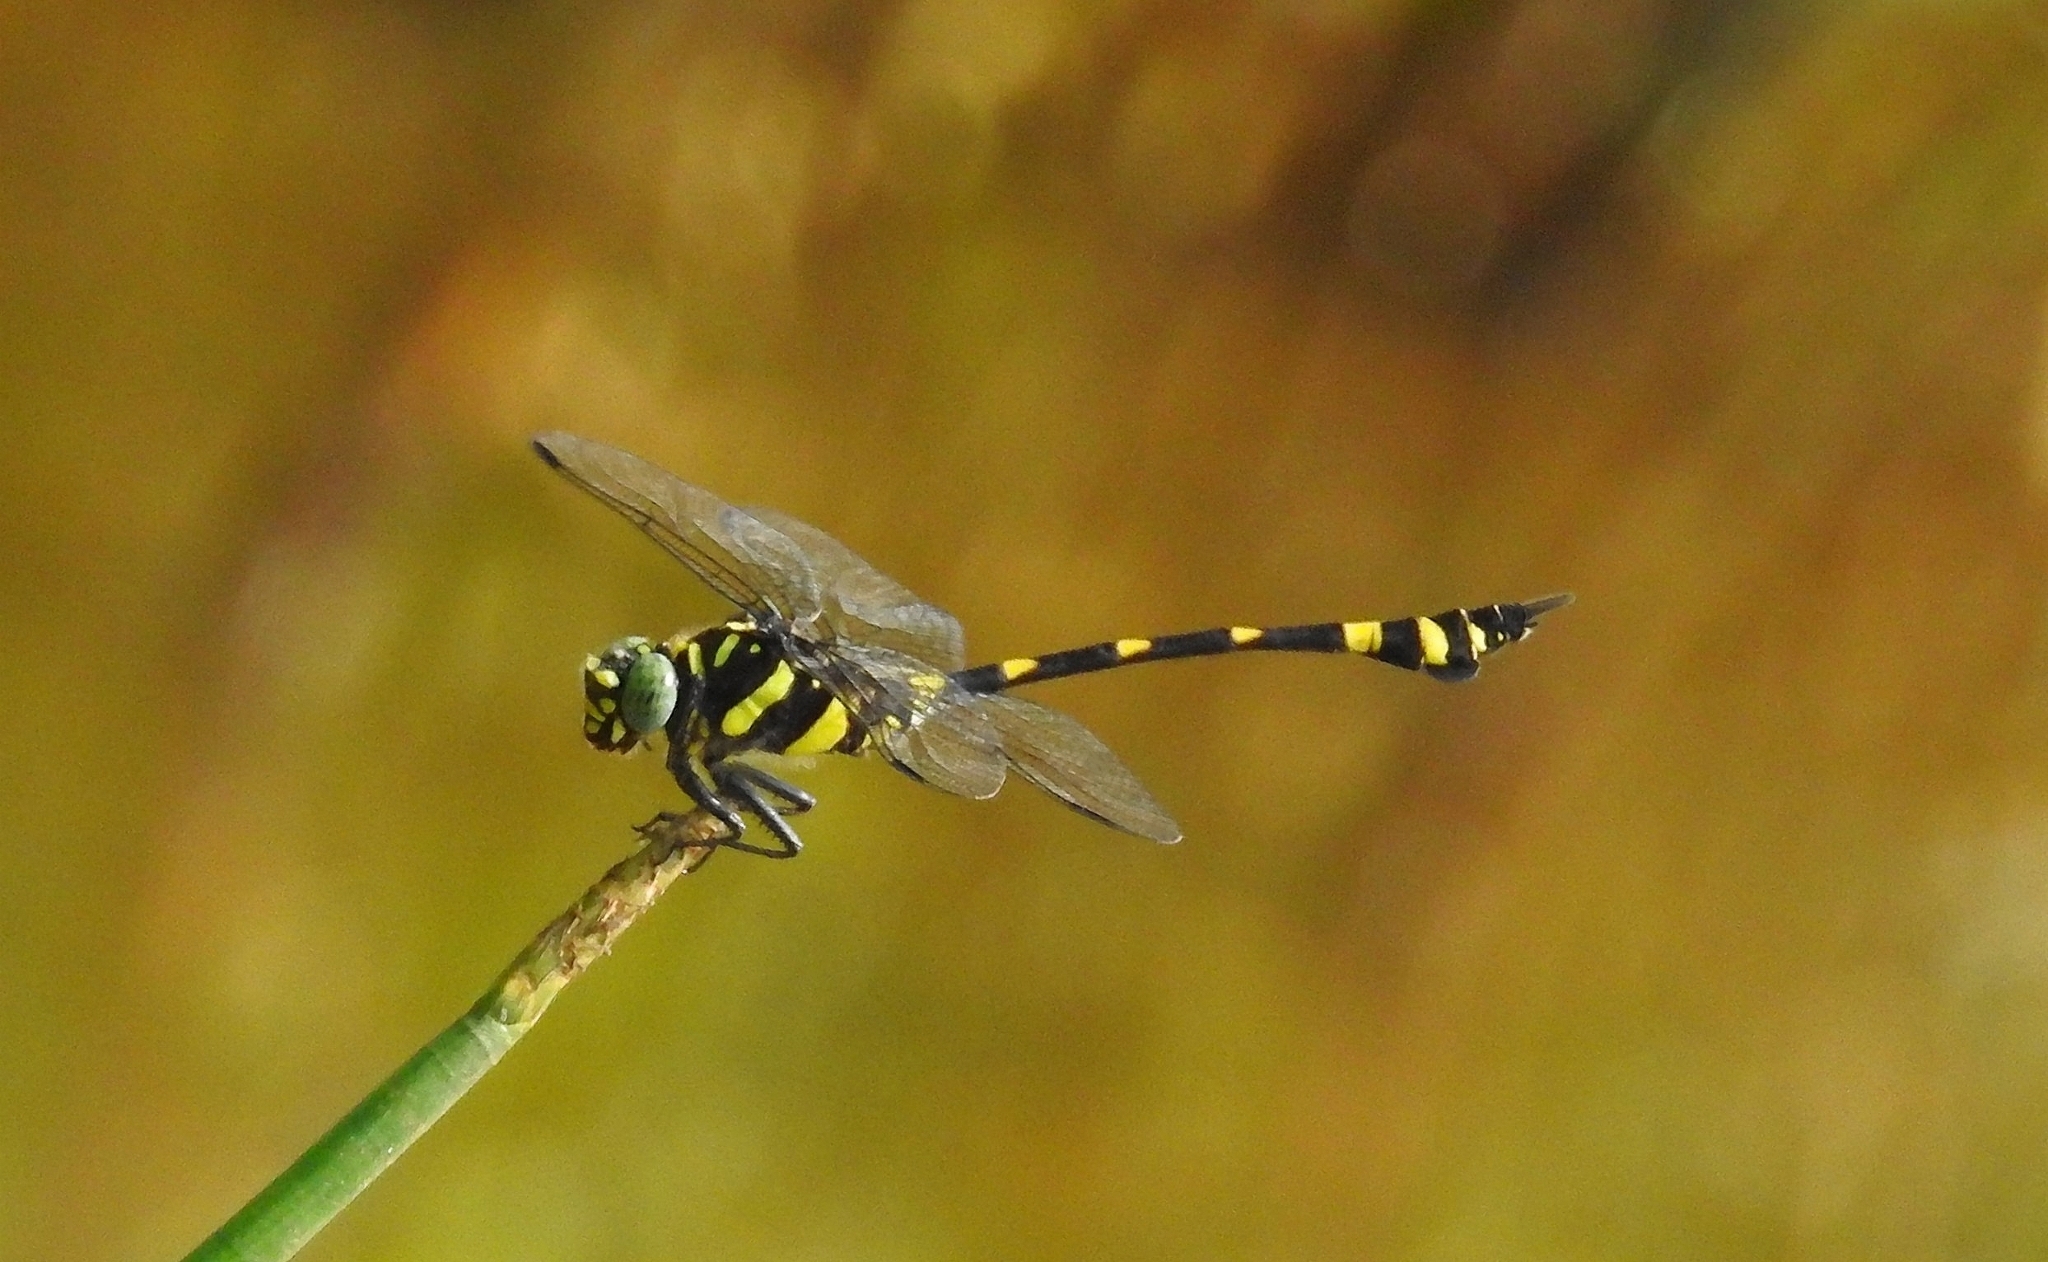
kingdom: Animalia
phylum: Arthropoda
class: Insecta
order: Odonata
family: Gomphidae
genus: Ictinogomphus
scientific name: Ictinogomphus rapax
